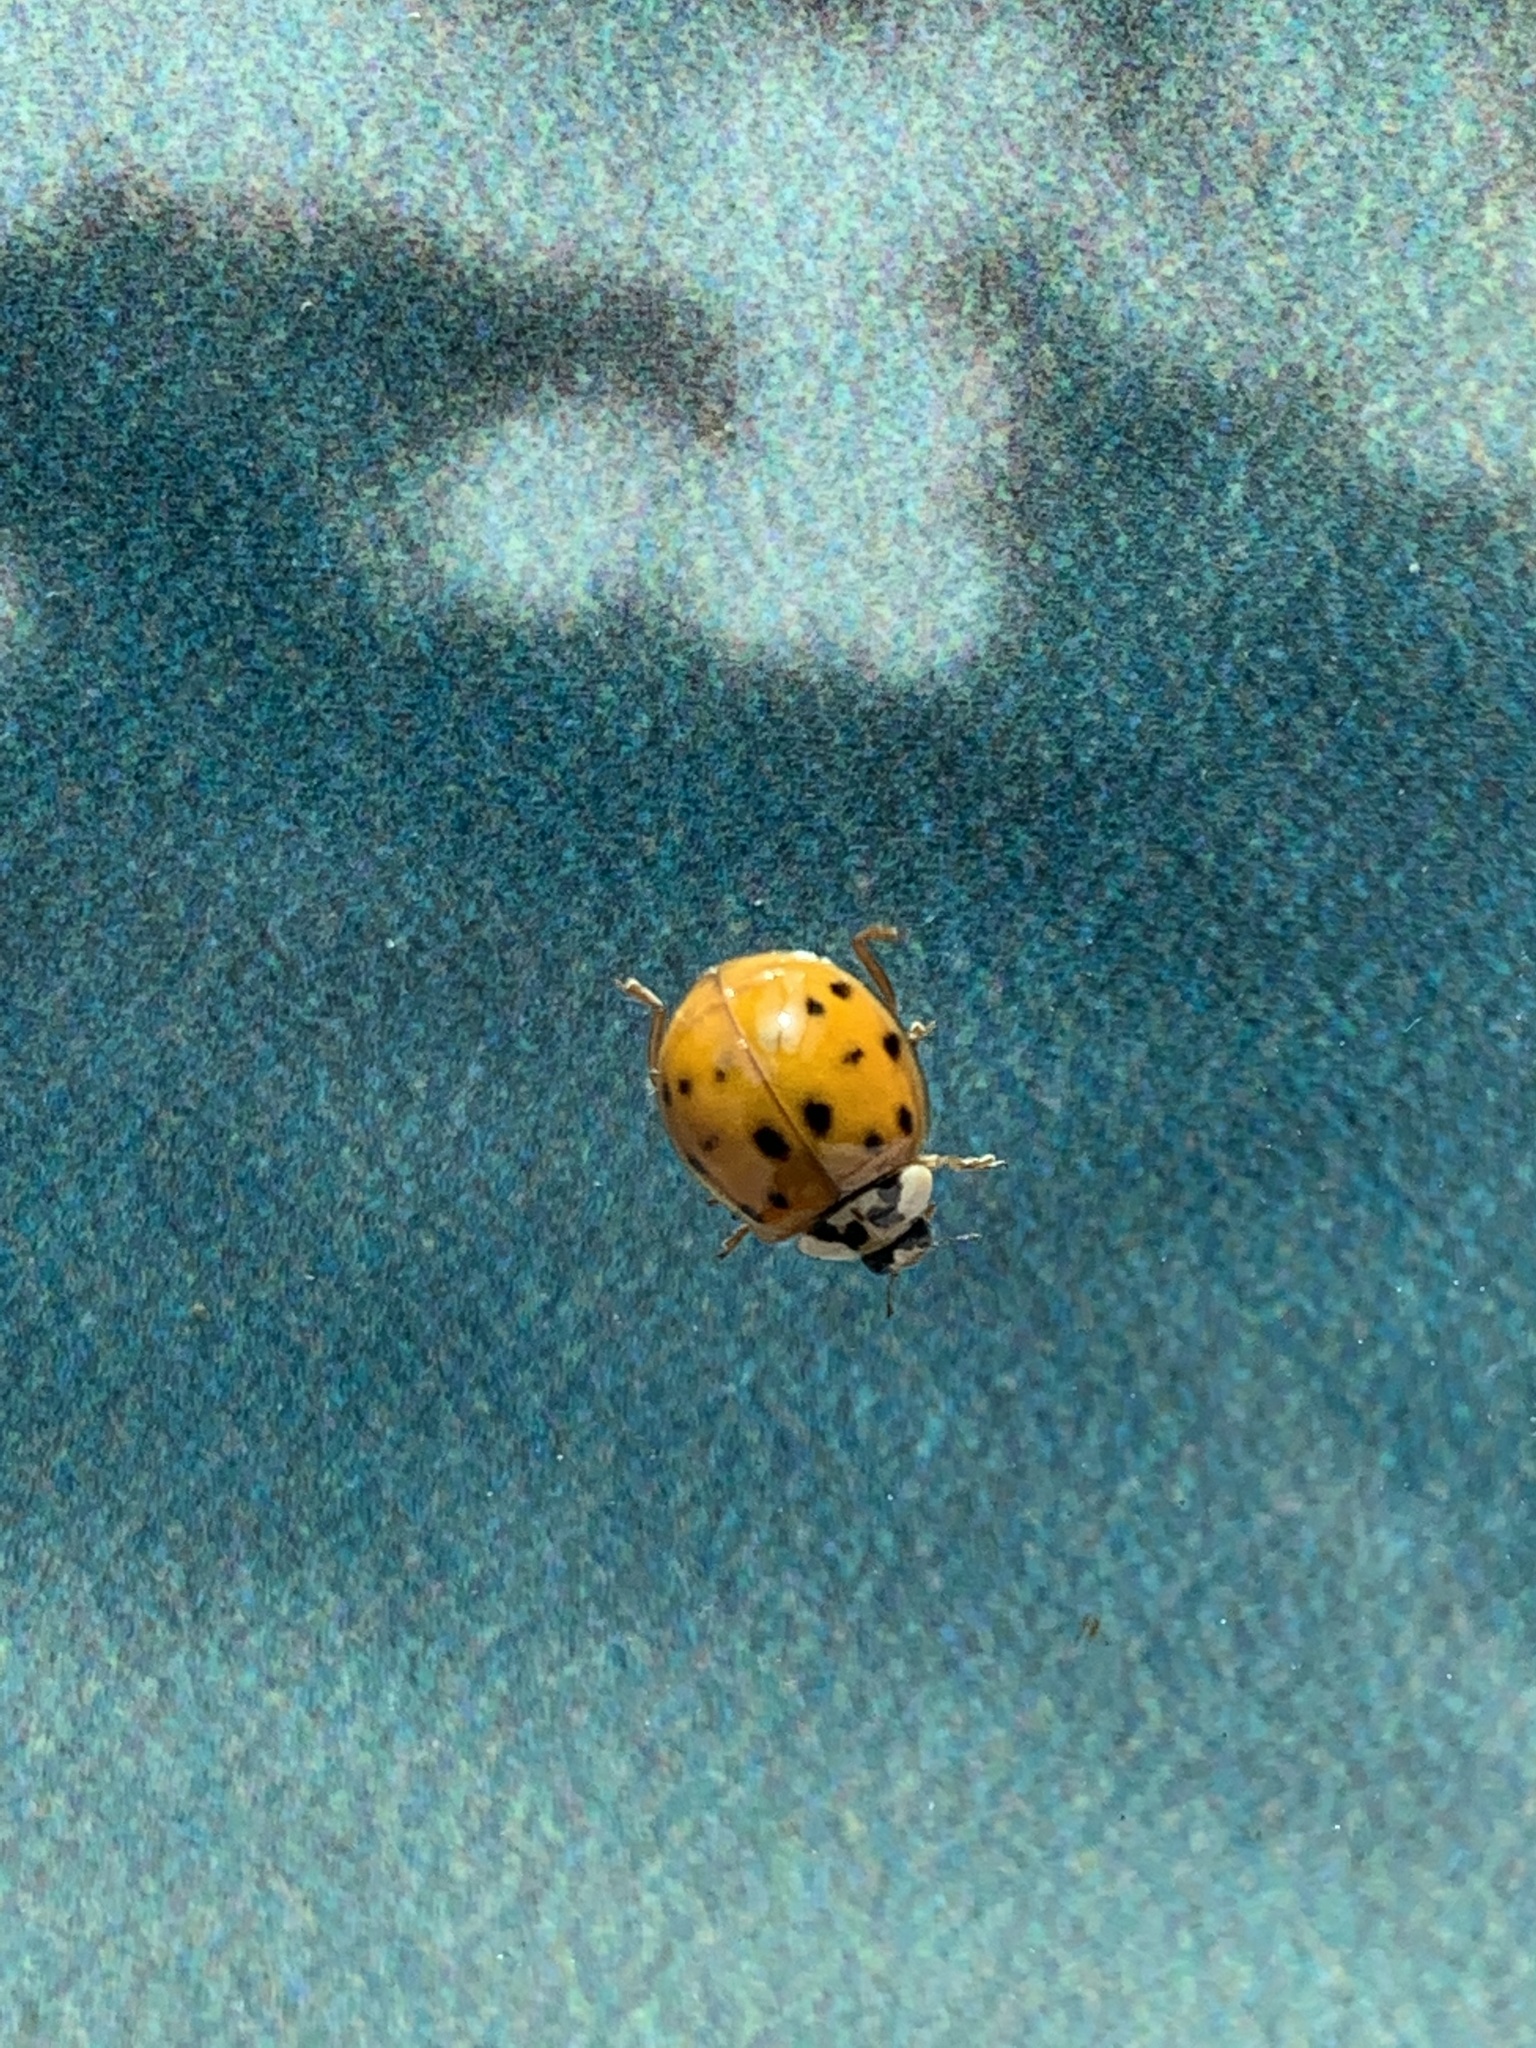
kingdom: Animalia
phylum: Arthropoda
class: Insecta
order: Coleoptera
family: Coccinellidae
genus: Harmonia
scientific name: Harmonia axyridis
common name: Harlequin ladybird
